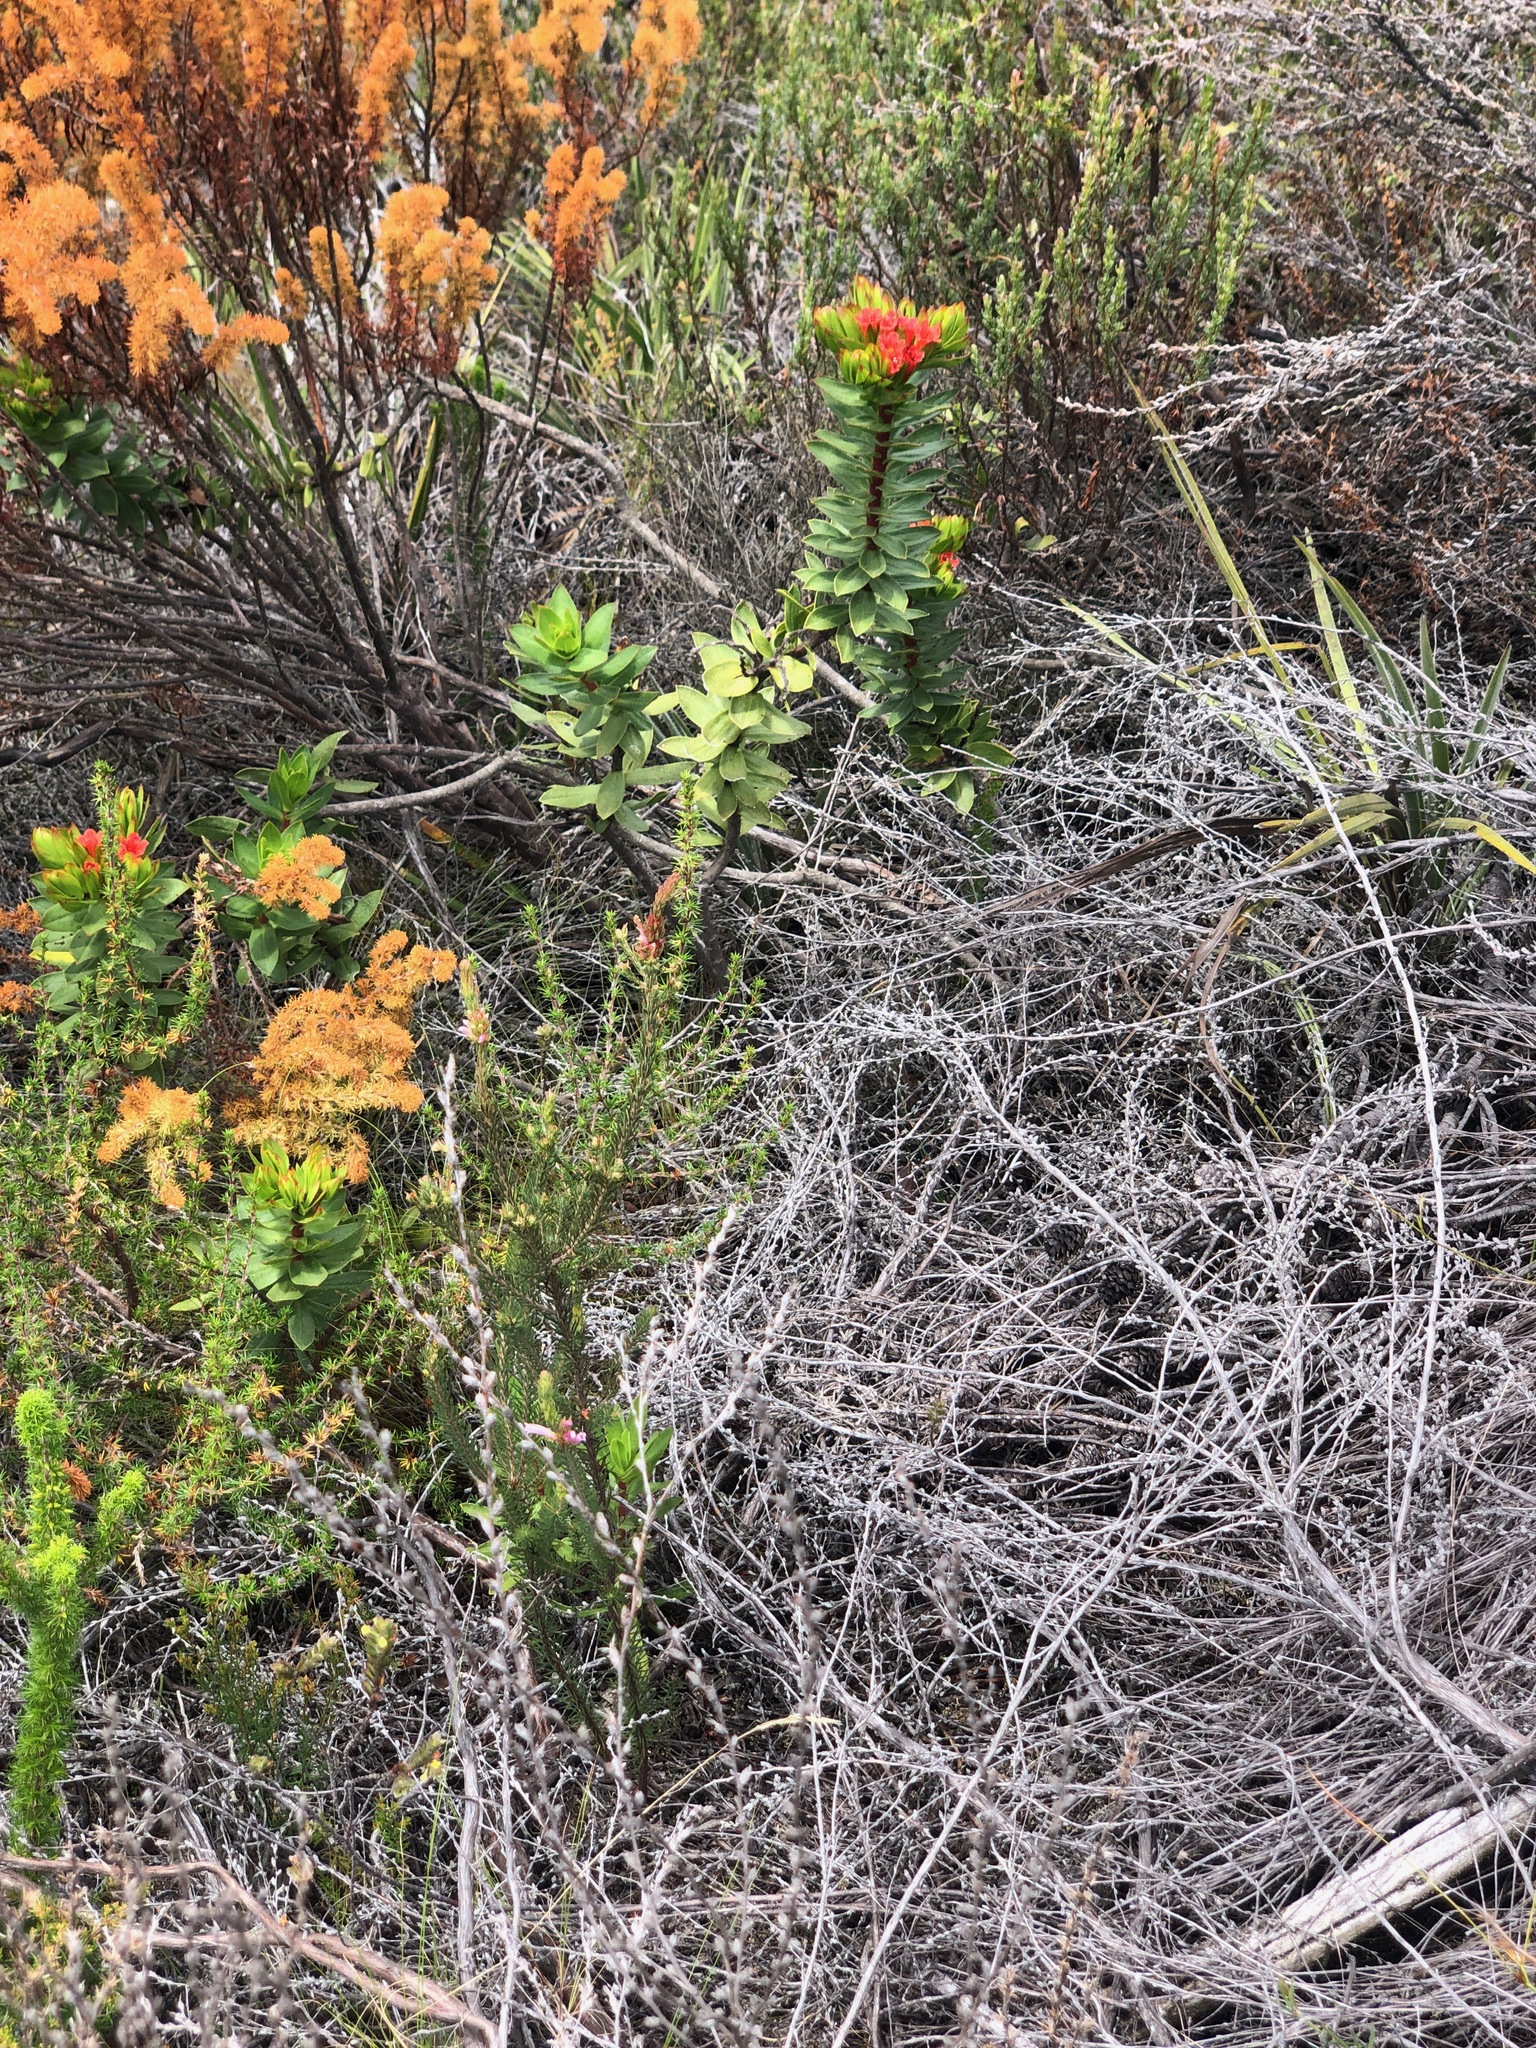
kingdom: Plantae
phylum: Tracheophyta
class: Magnoliopsida
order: Boraginales
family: Boraginaceae
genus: Lobostemon
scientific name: Lobostemon sanguineus
